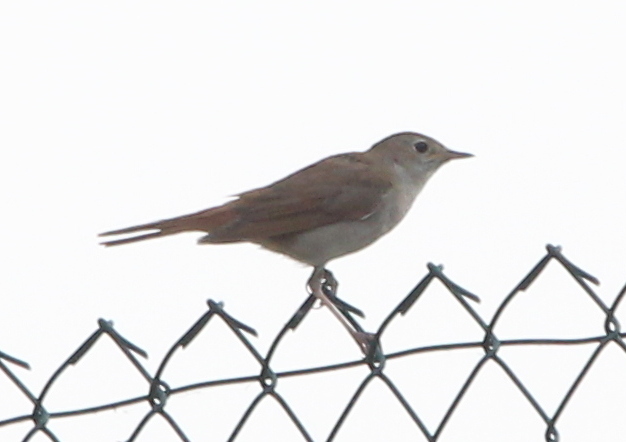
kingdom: Animalia
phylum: Chordata
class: Aves
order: Passeriformes
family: Muscicapidae
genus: Luscinia
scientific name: Luscinia megarhynchos
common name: Common nightingale
